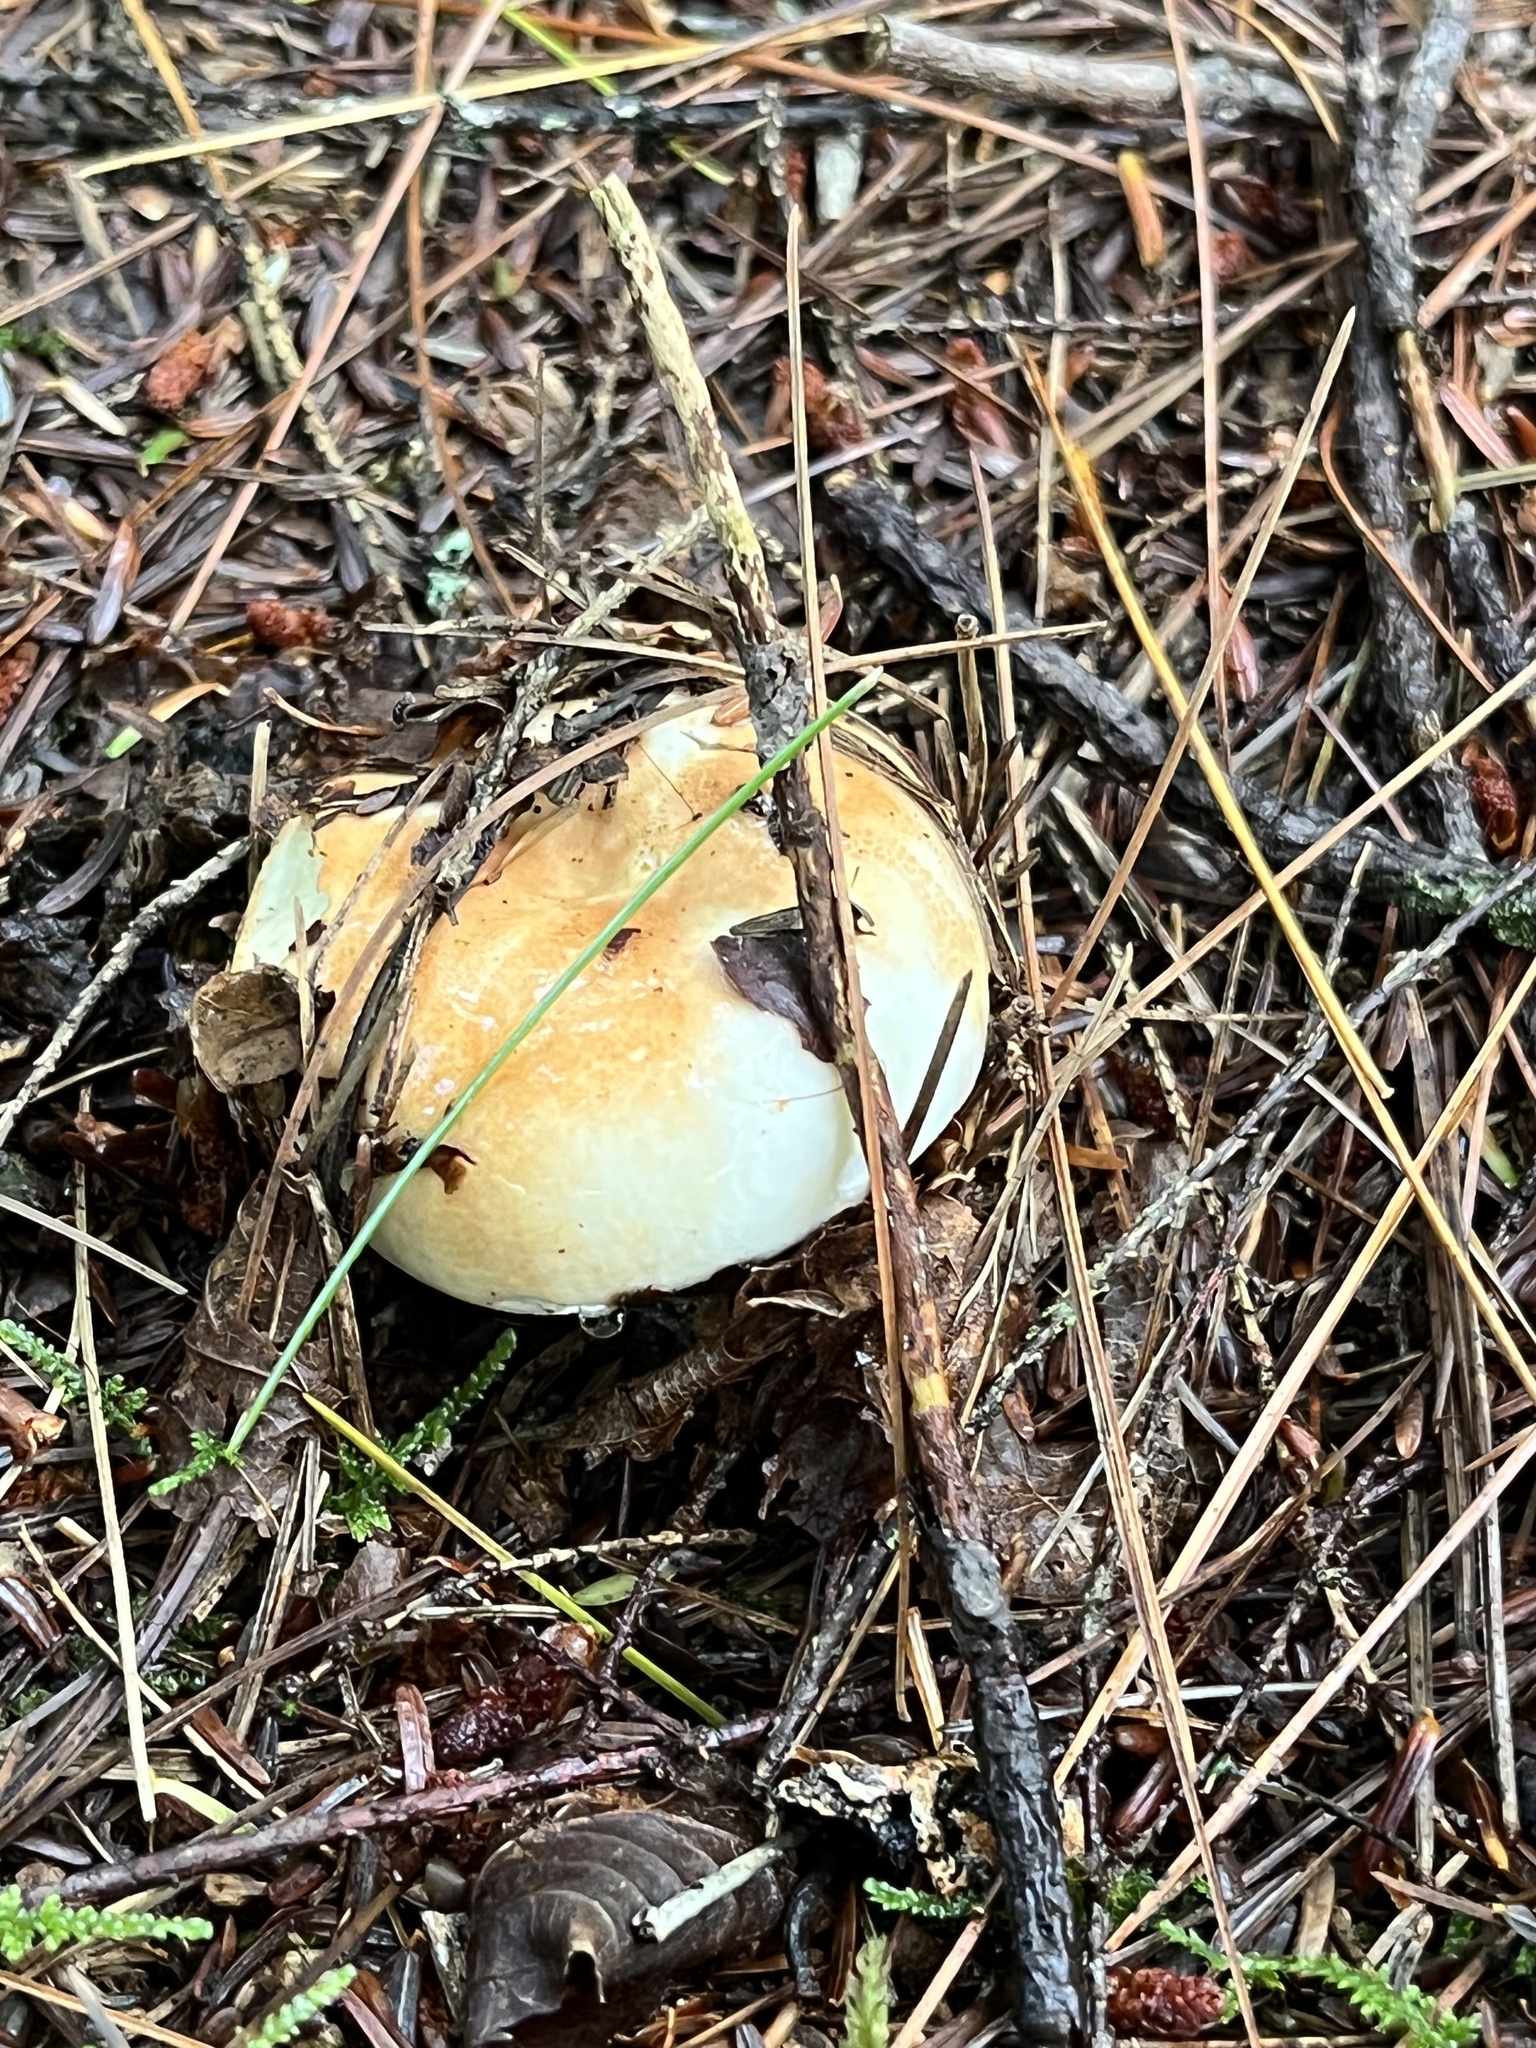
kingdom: Fungi
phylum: Basidiomycota
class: Agaricomycetes
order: Russulales
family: Russulaceae
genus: Russula
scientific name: Russula compacta
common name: Fishbiscuit russula
